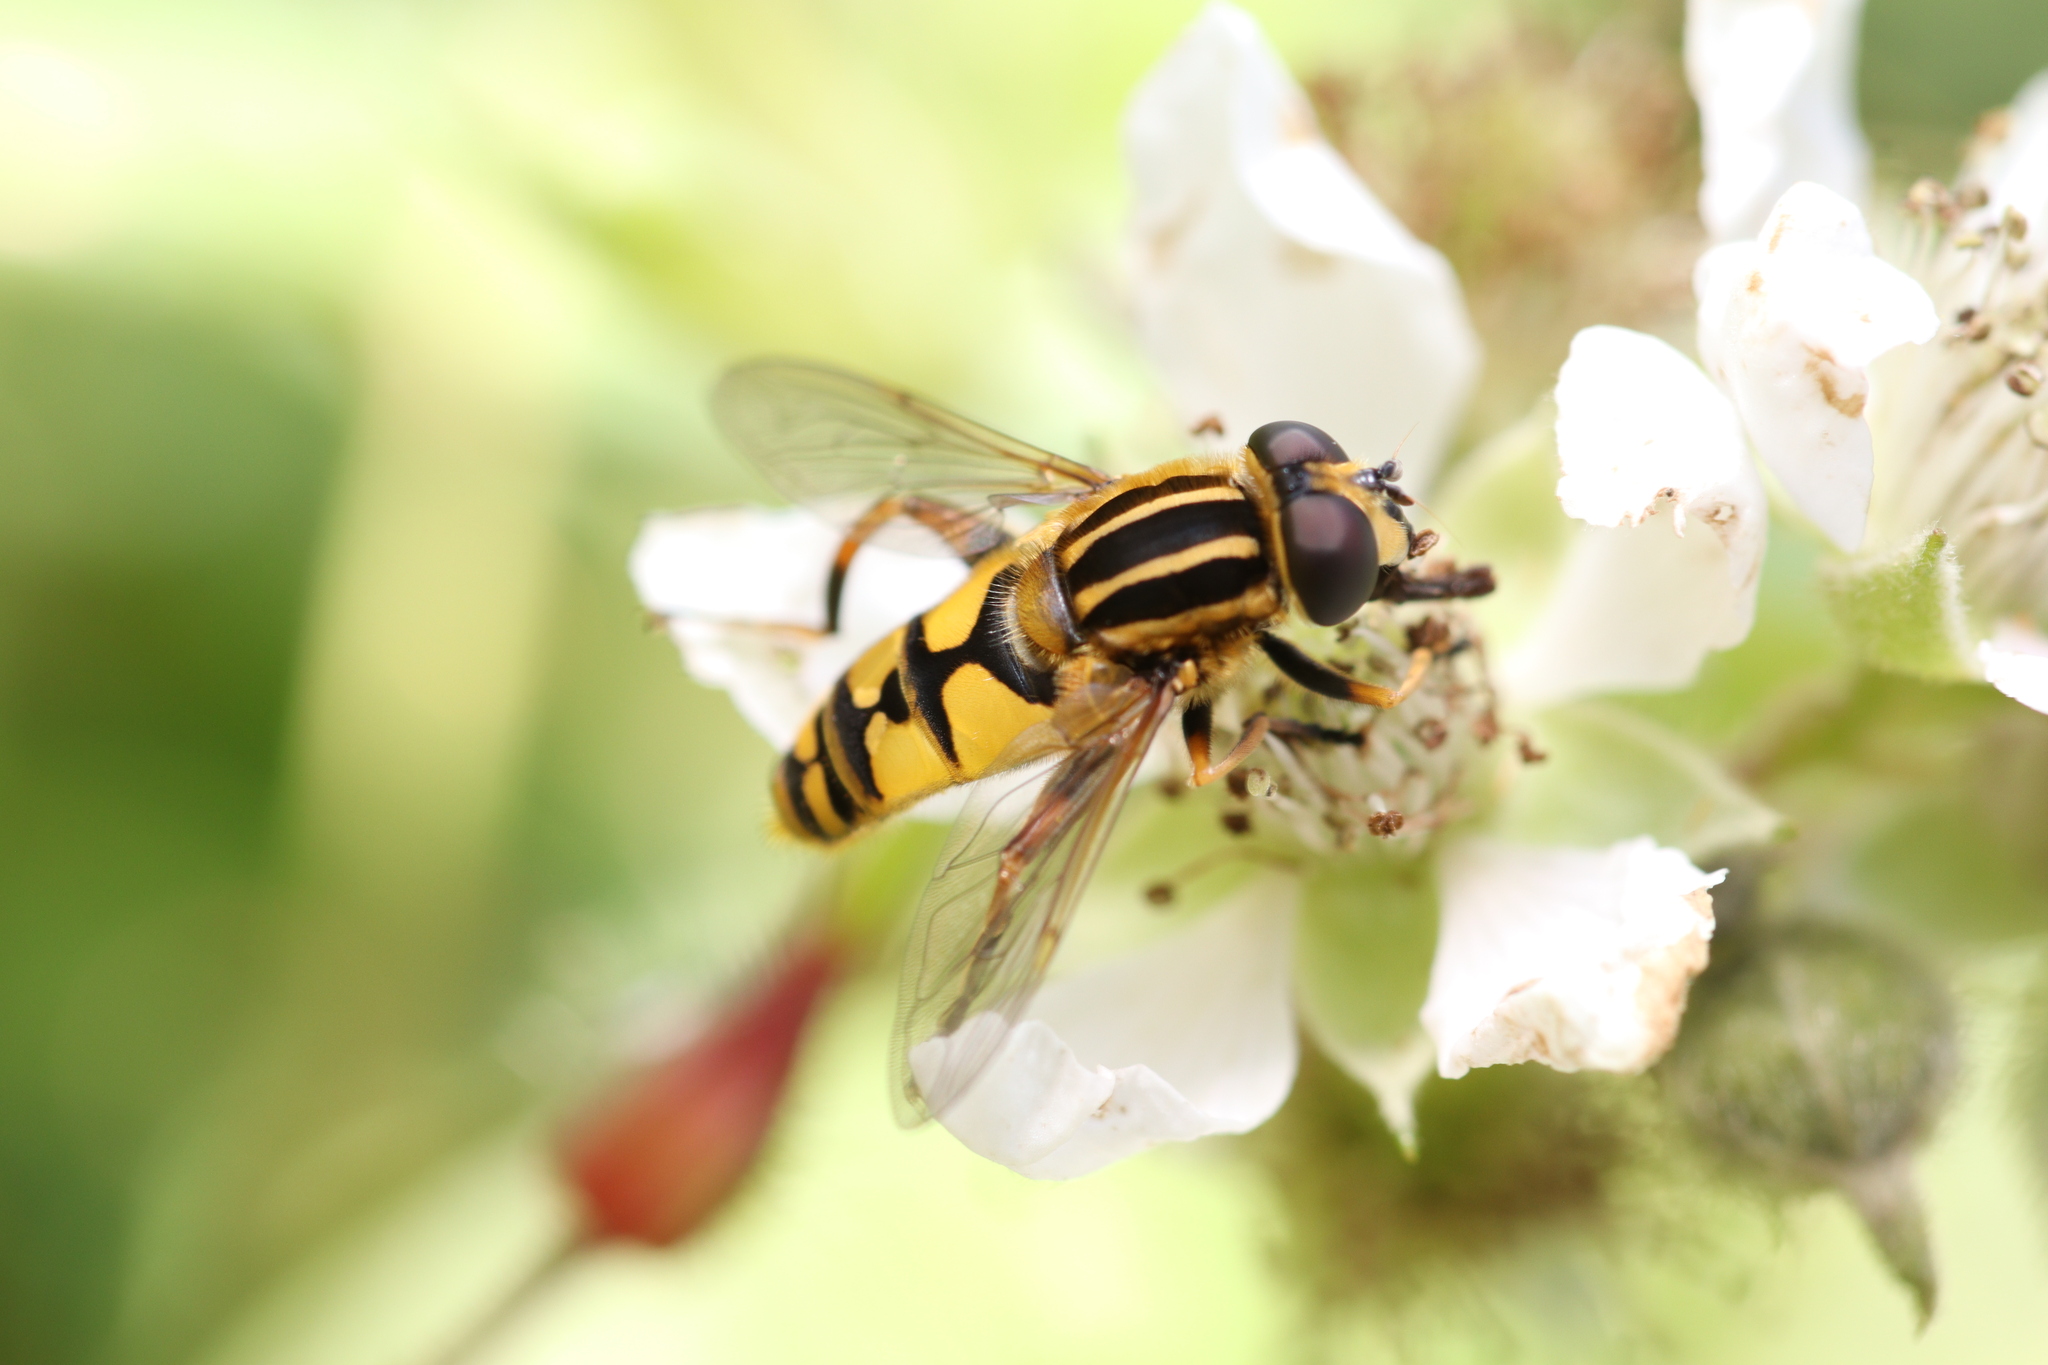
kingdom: Animalia
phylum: Arthropoda
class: Insecta
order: Diptera
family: Syrphidae
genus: Helophilus
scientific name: Helophilus pendulus
